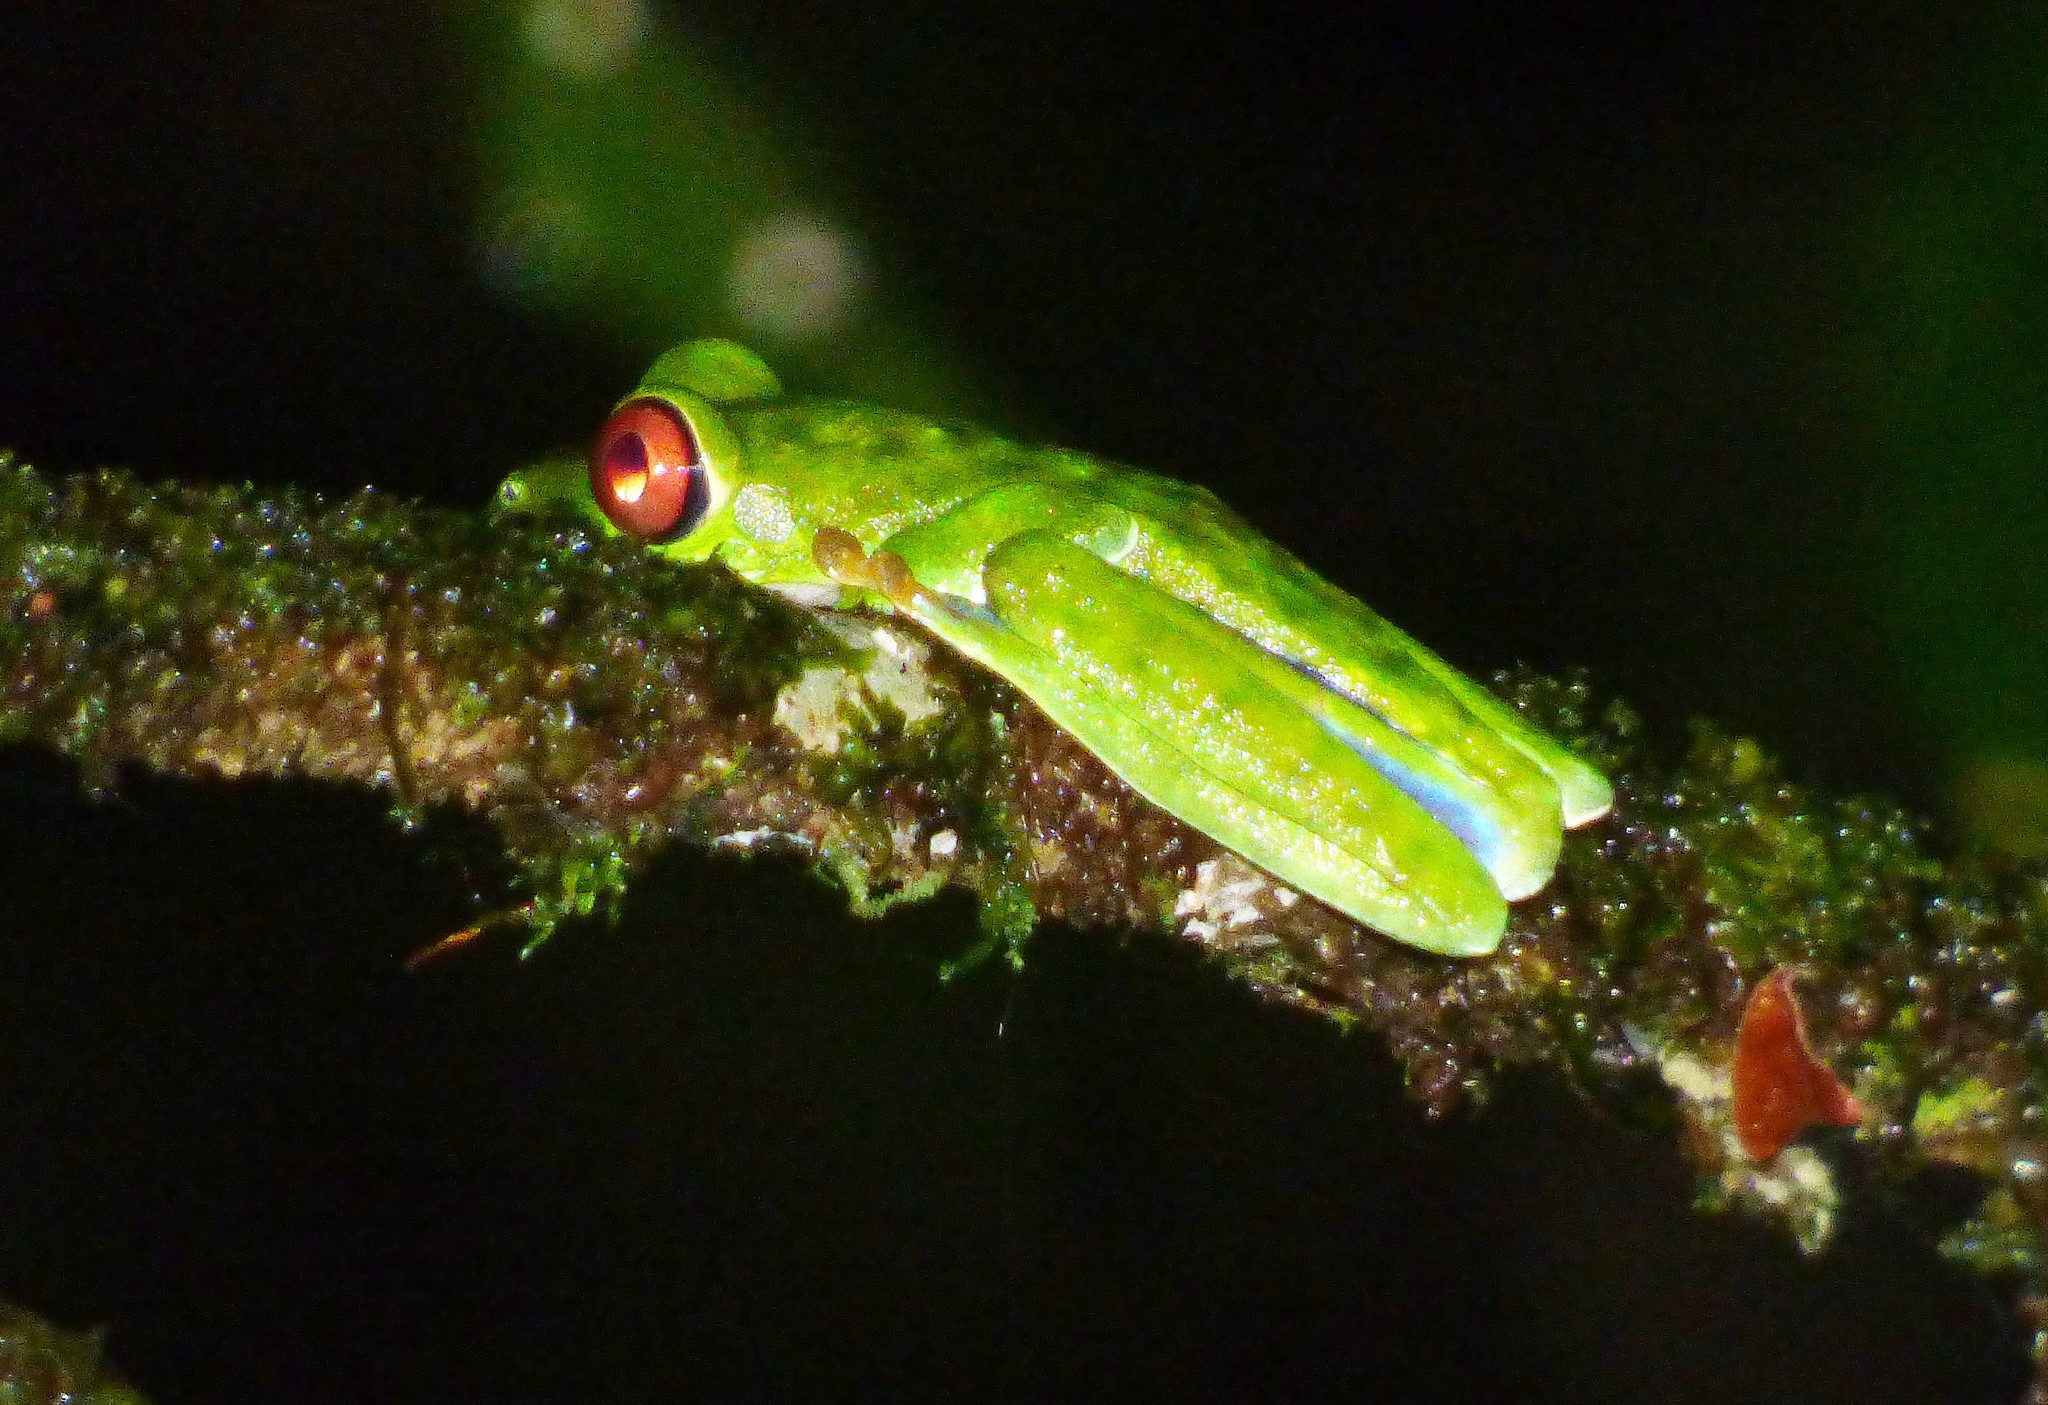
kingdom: Animalia
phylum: Chordata
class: Amphibia
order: Anura
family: Phyllomedusidae
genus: Agalychnis
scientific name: Agalychnis callidryas
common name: Red-eyed treefrog
